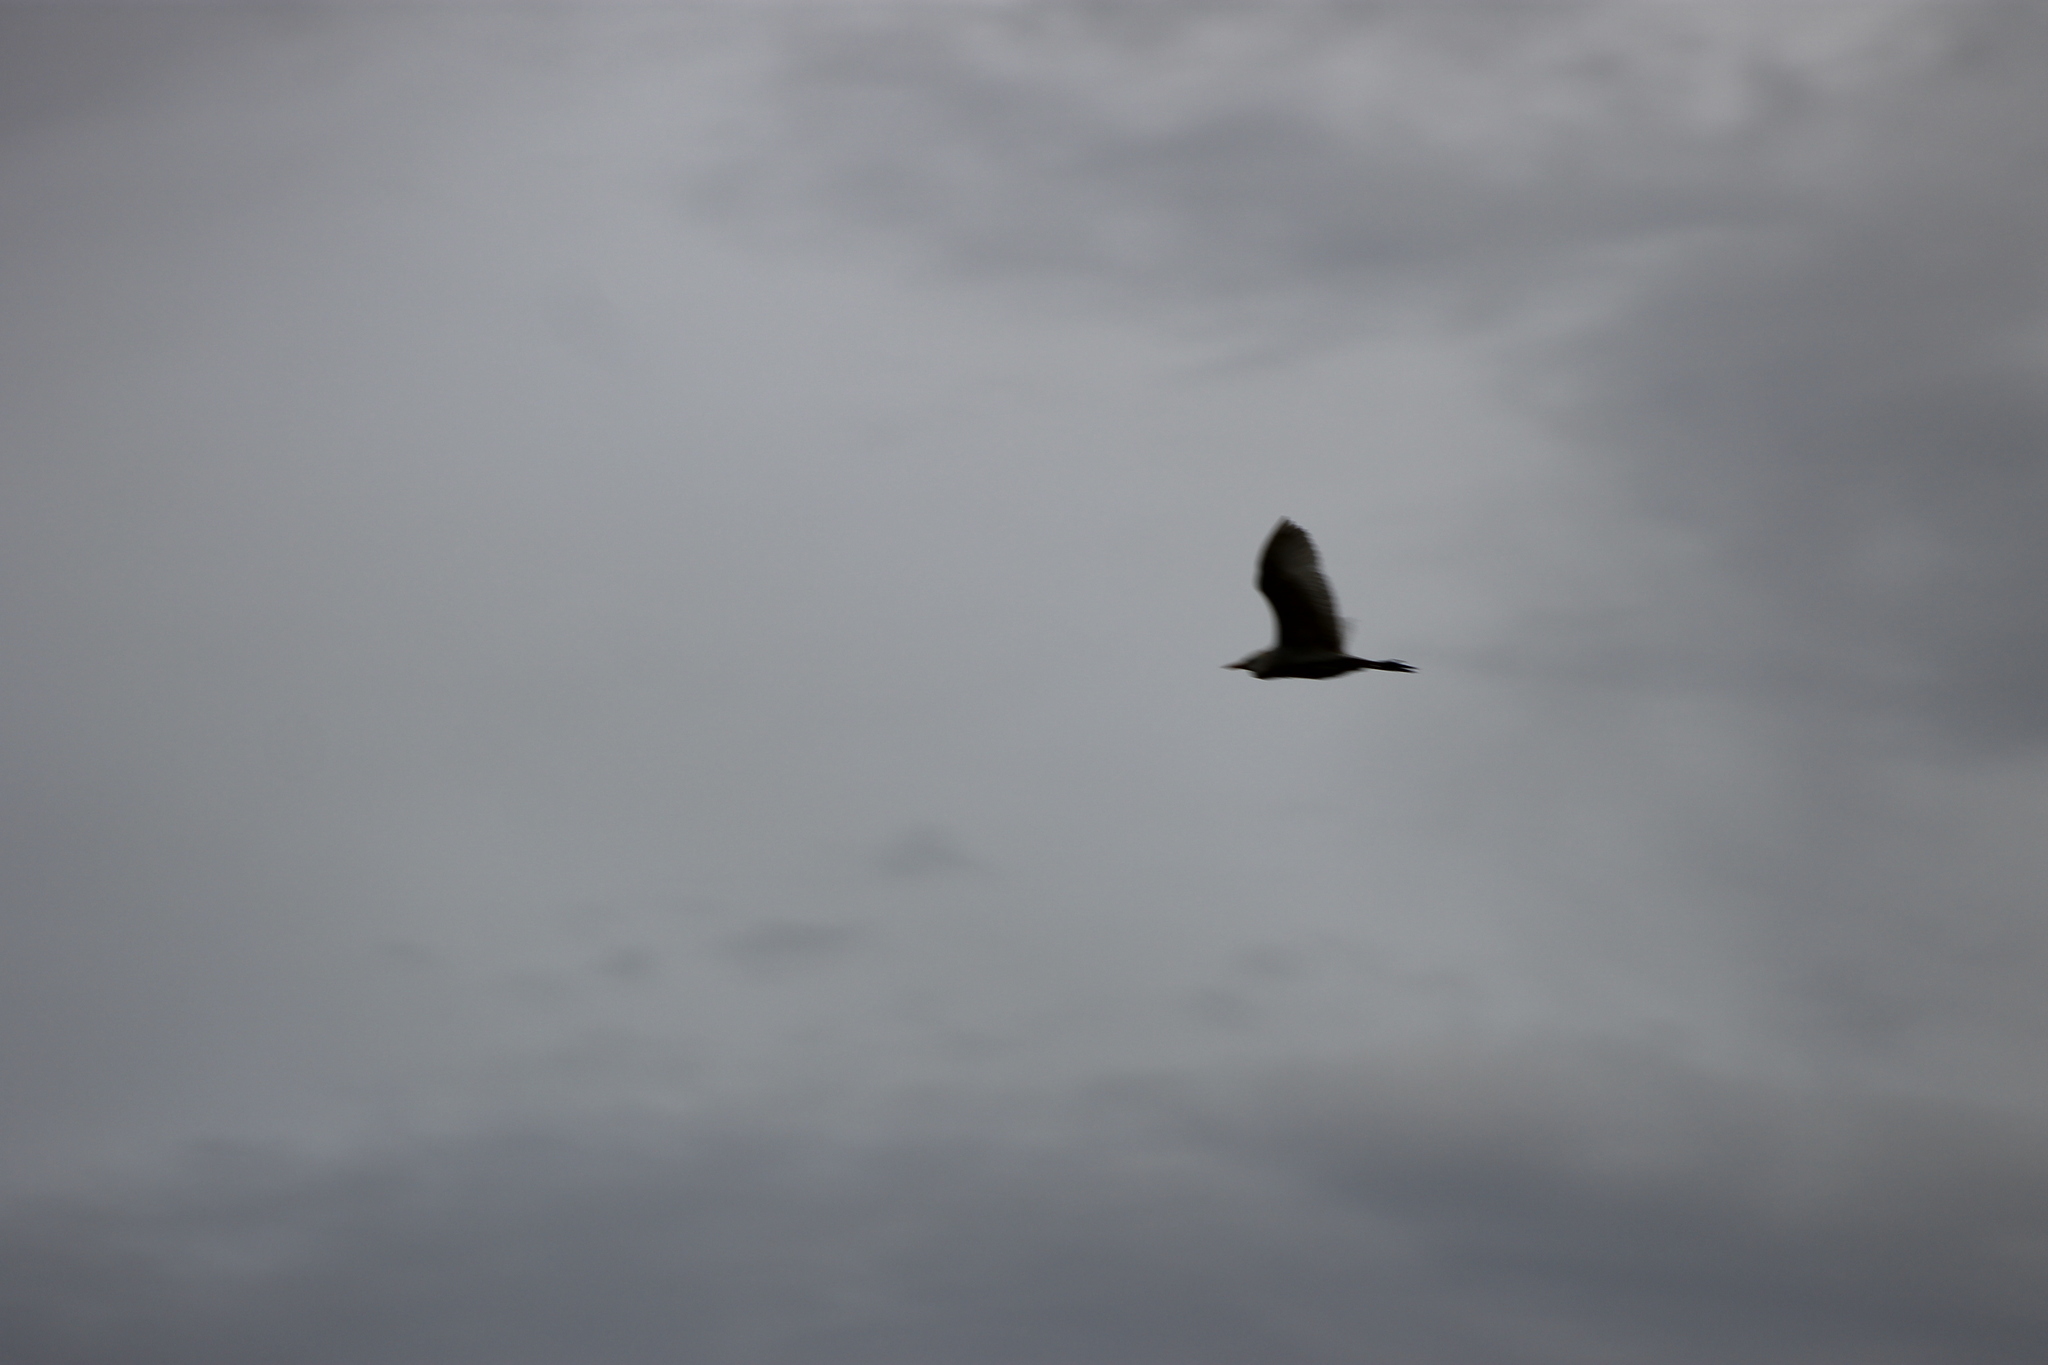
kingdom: Animalia
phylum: Chordata
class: Aves
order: Pelecaniformes
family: Ardeidae
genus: Bubulcus
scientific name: Bubulcus ibis
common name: Cattle egret
